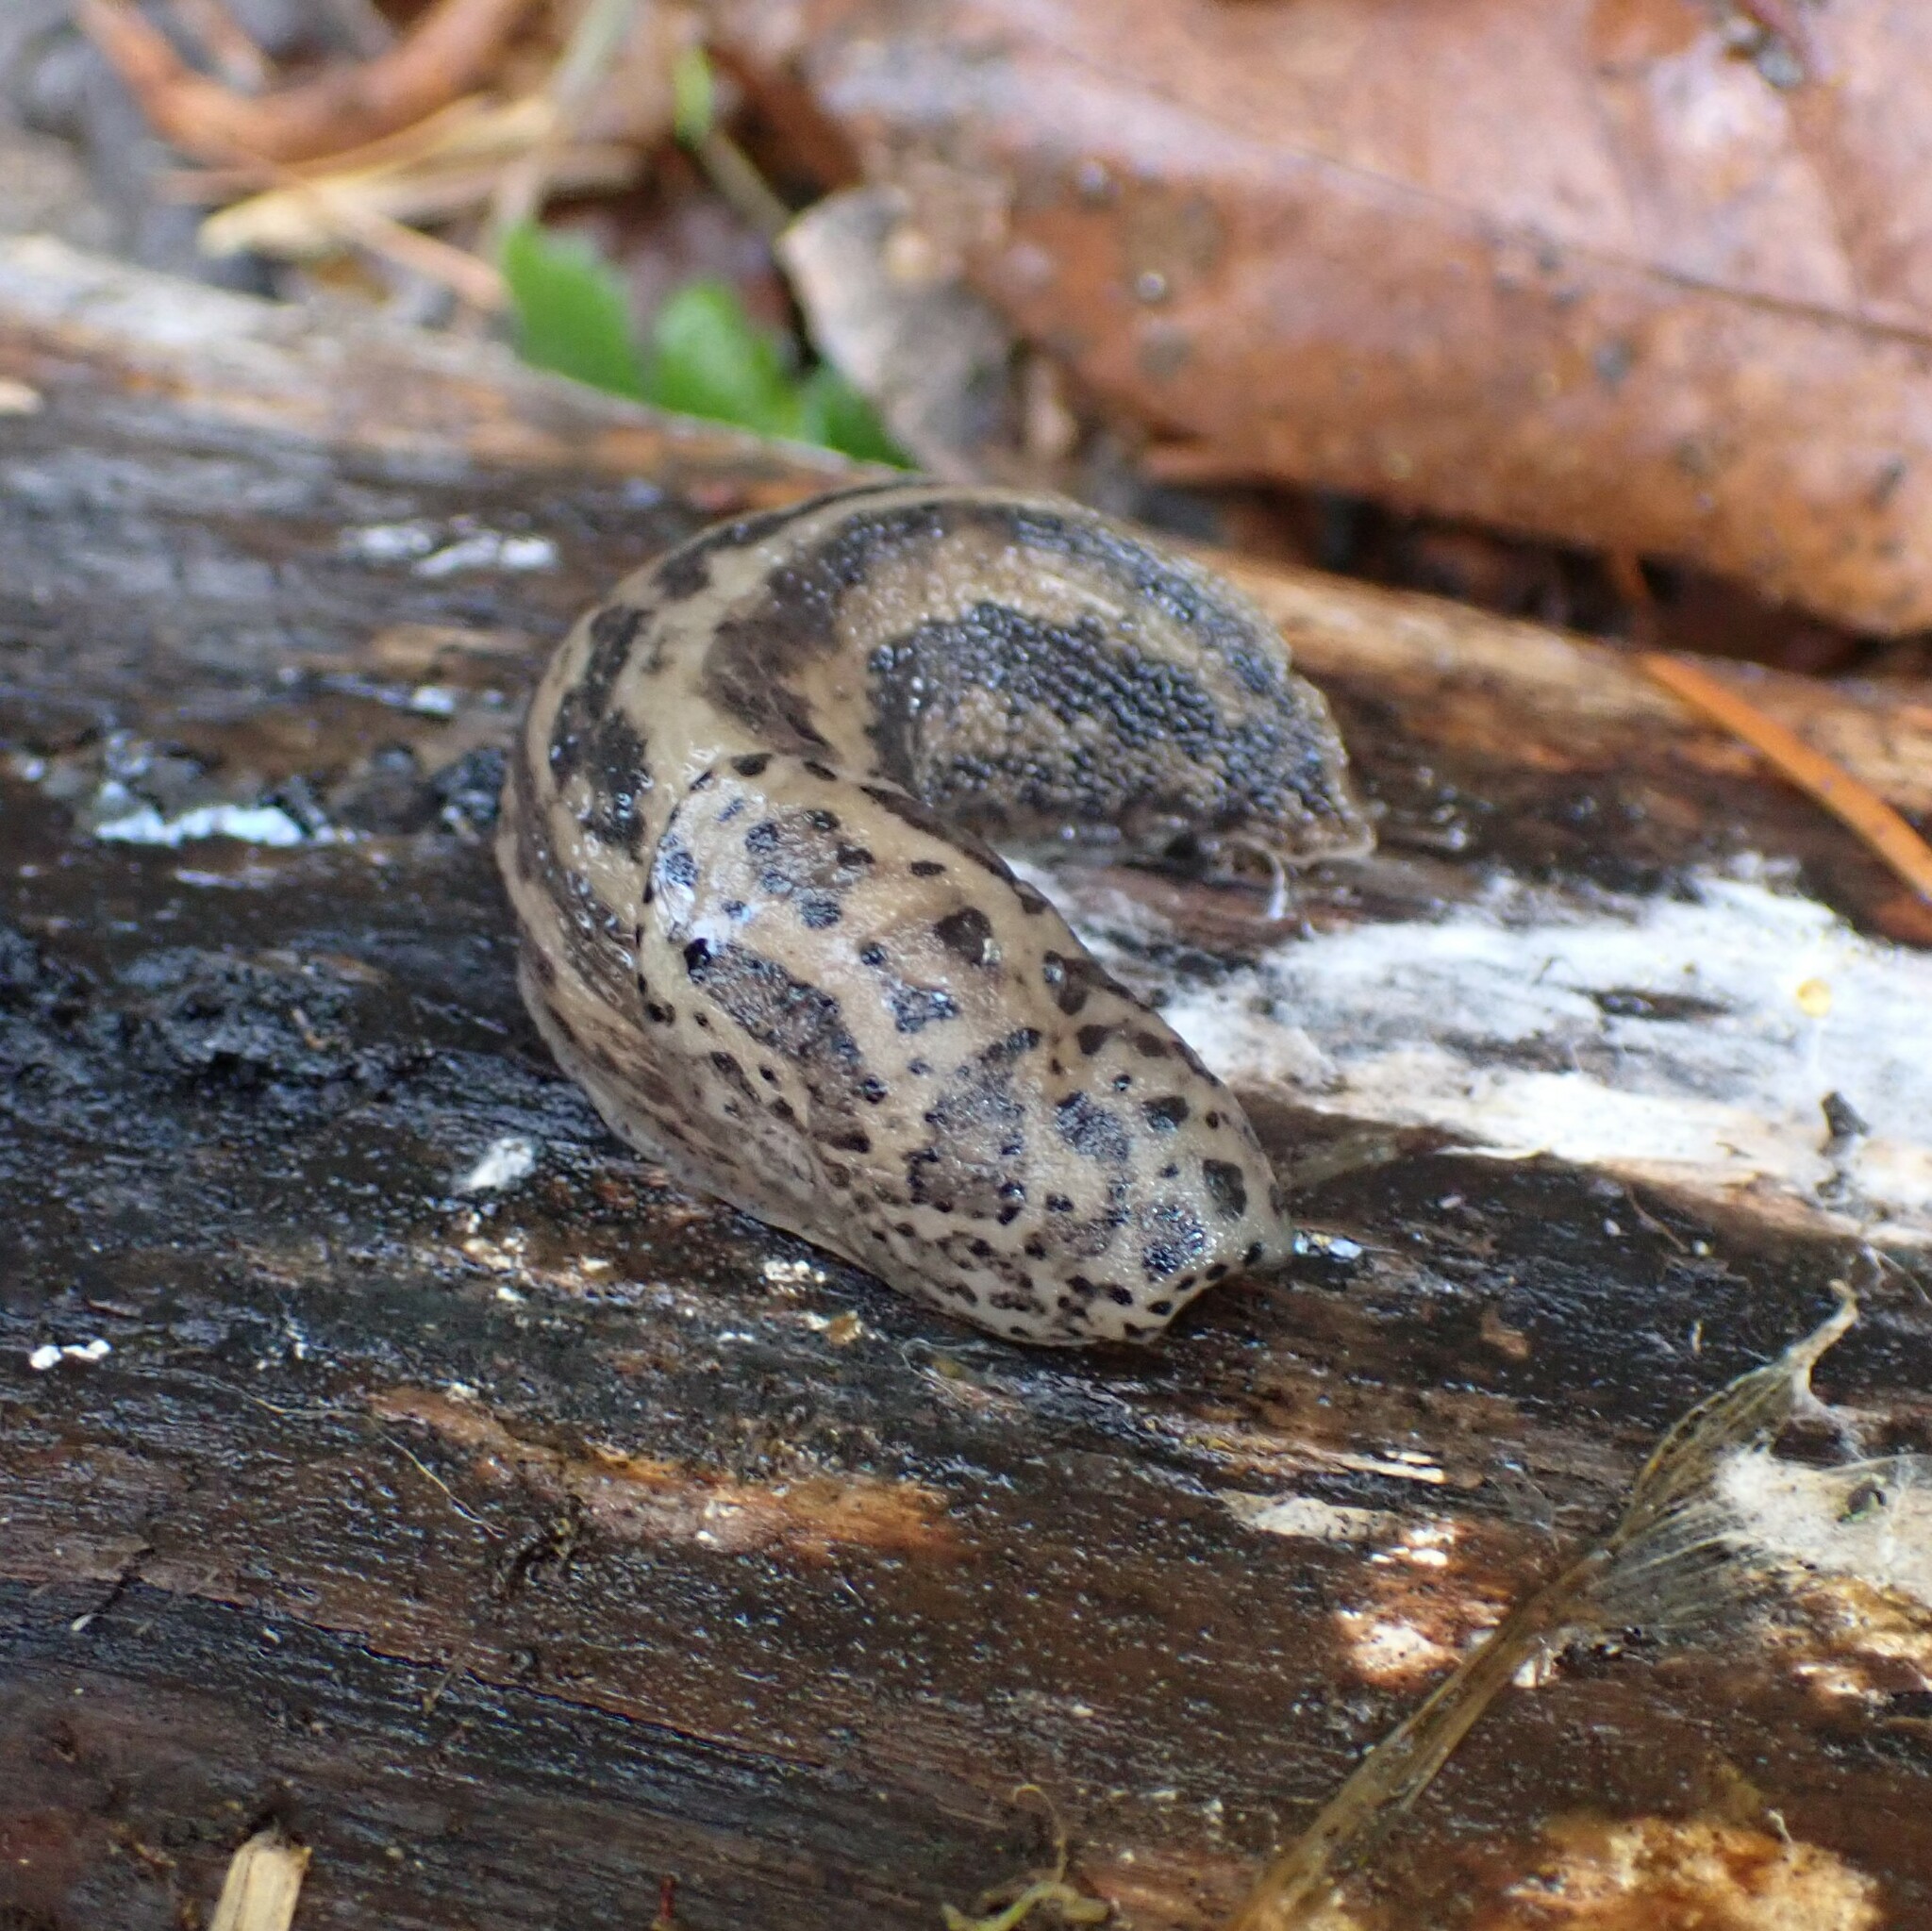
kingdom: Animalia
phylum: Mollusca
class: Gastropoda
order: Stylommatophora
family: Limacidae
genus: Limax
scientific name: Limax maximus
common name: Great grey slug
